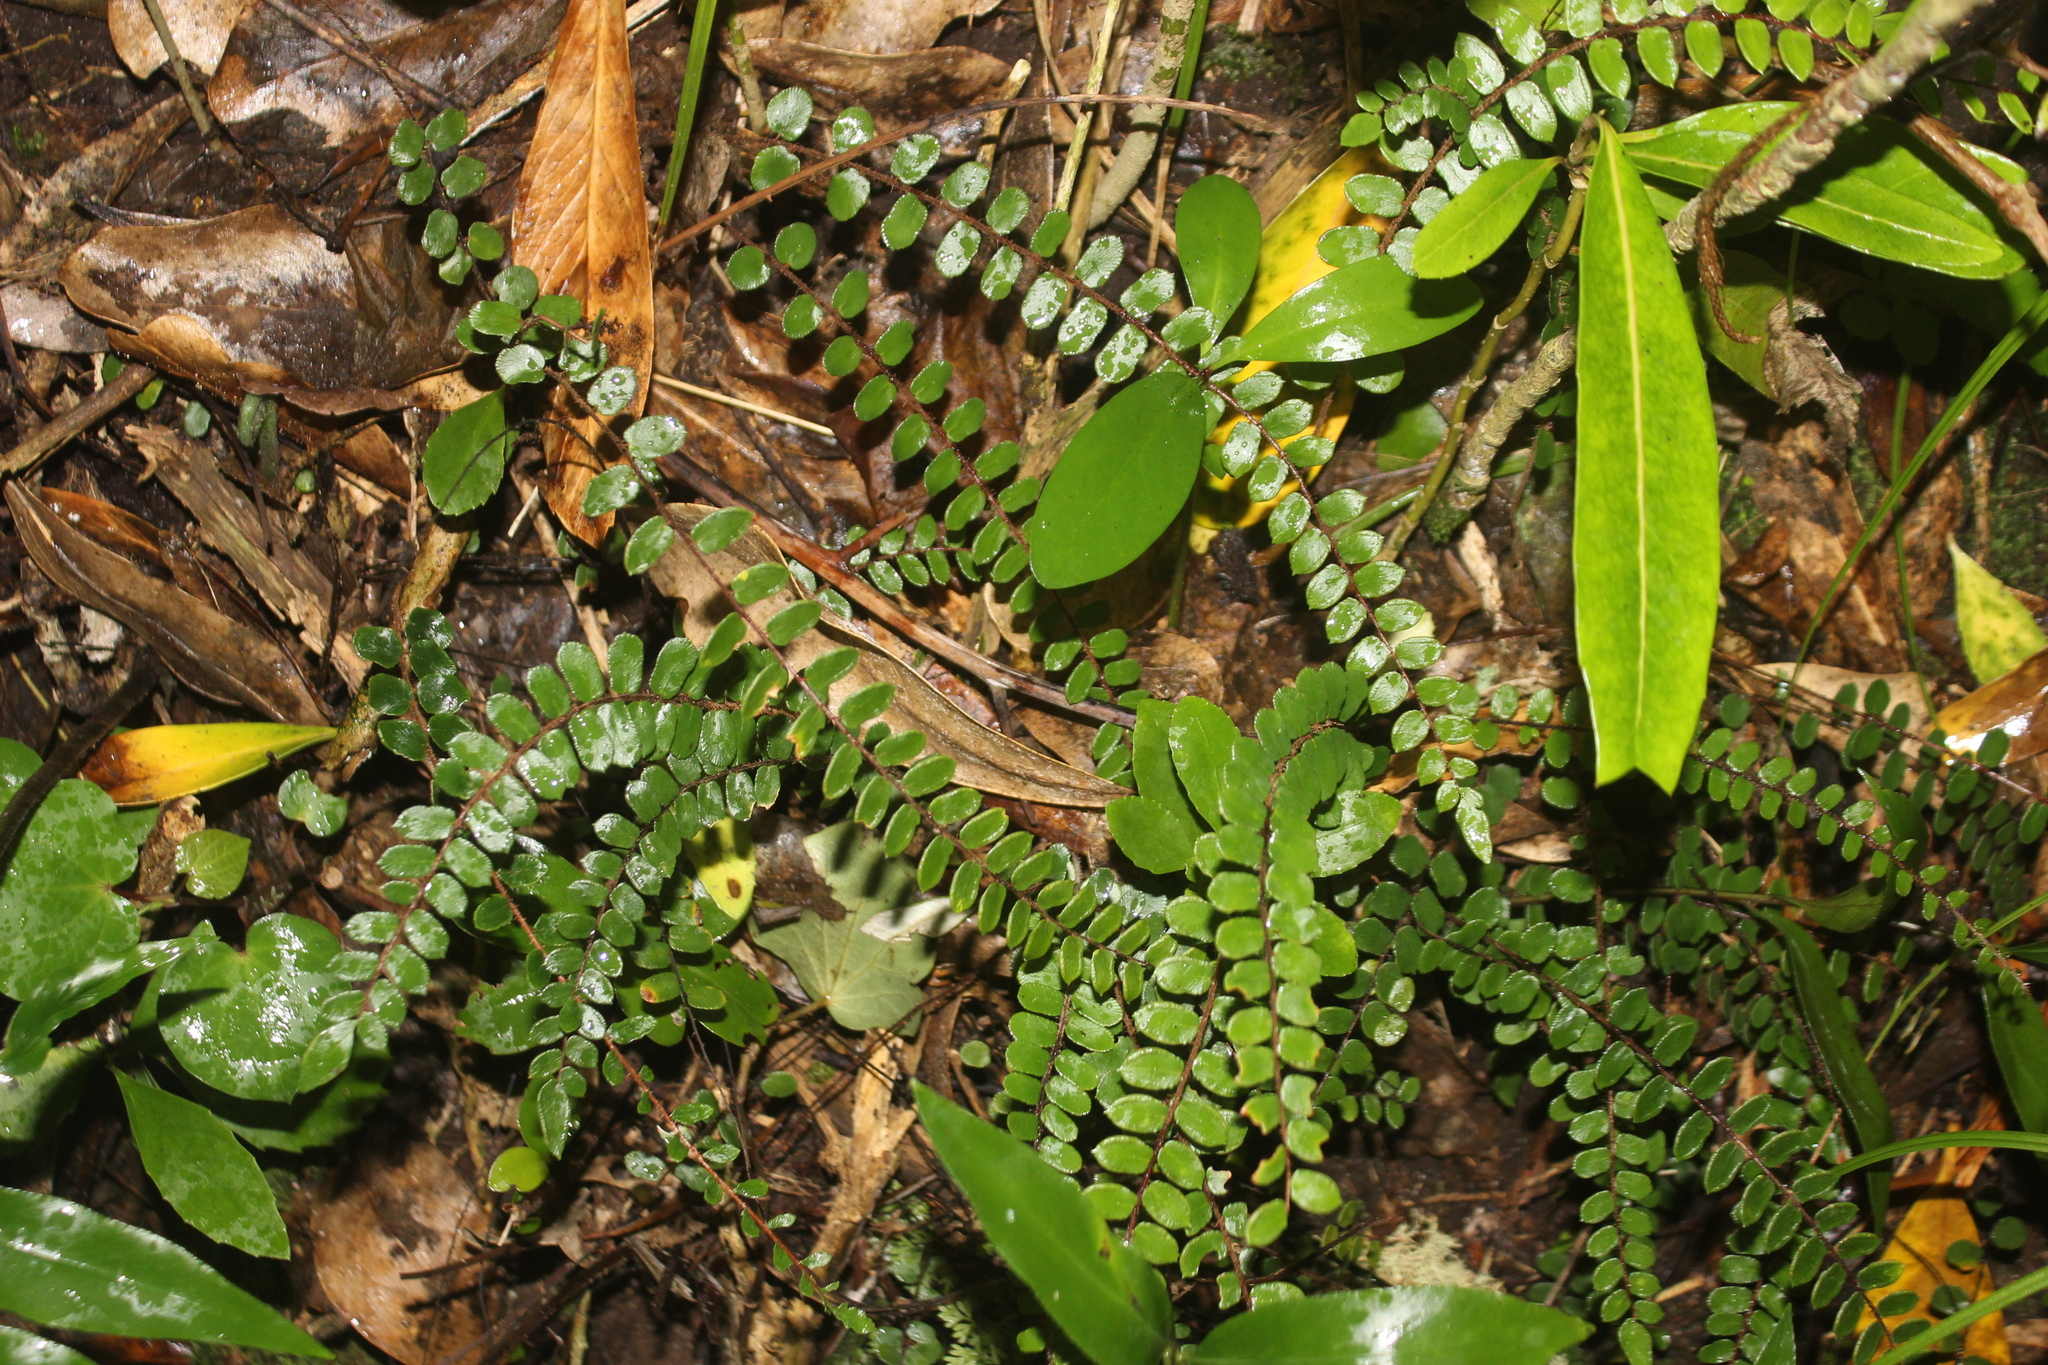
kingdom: Plantae
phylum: Tracheophyta
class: Polypodiopsida
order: Polypodiales
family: Pteridaceae
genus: Pellaea
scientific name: Pellaea rotundifolia
